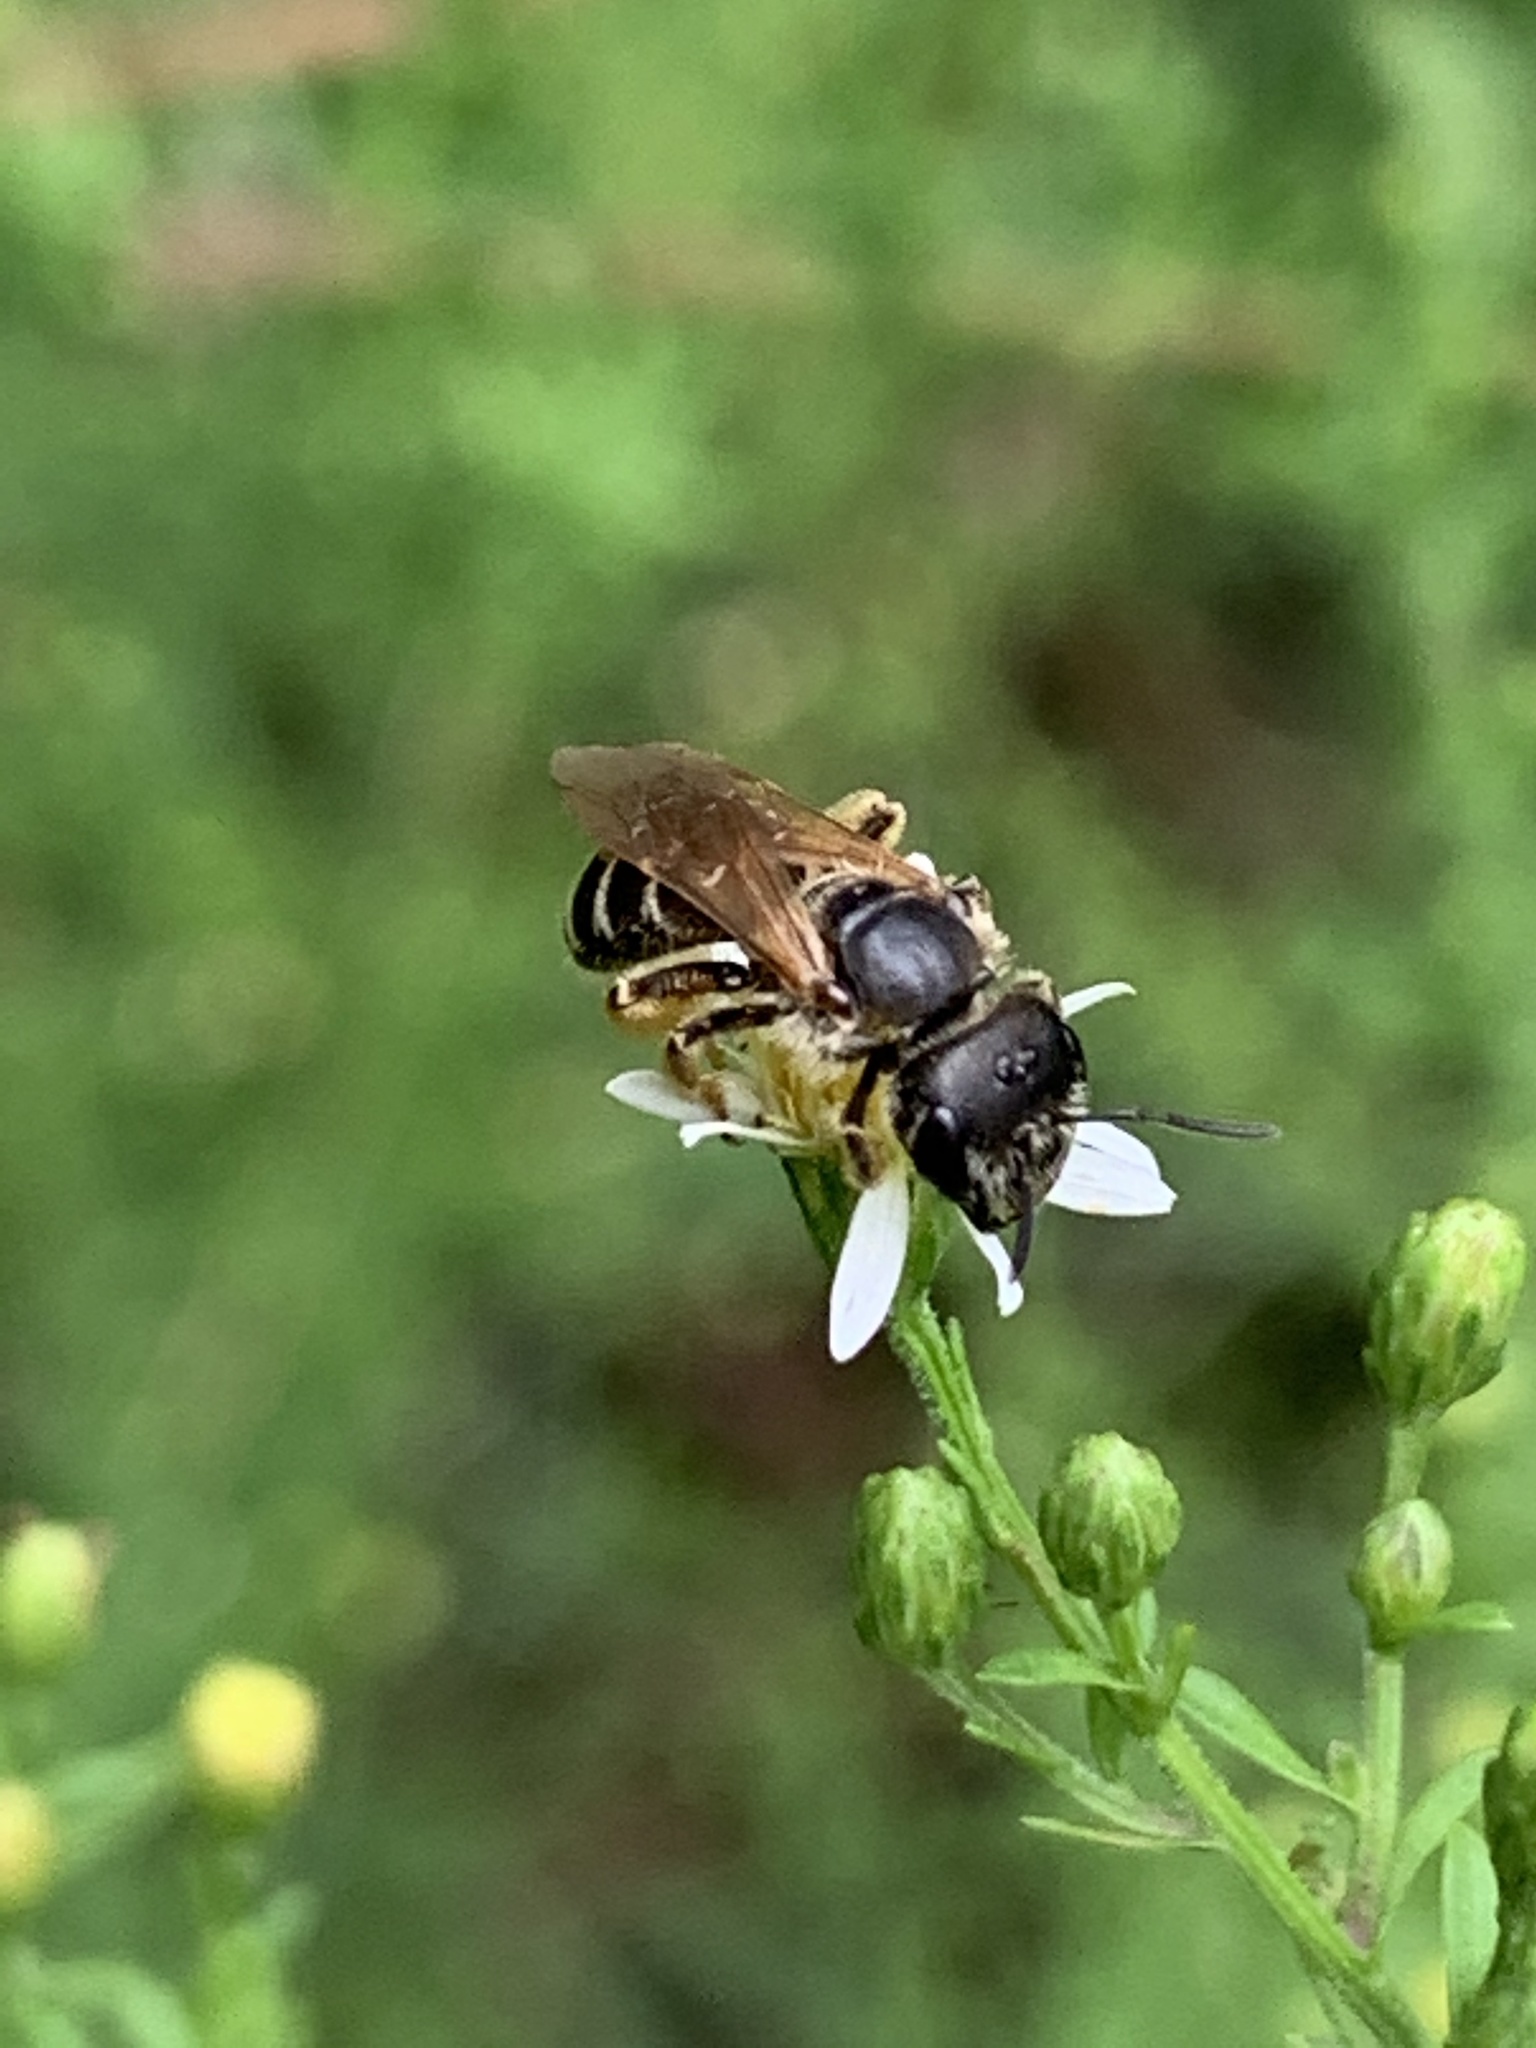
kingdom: Animalia
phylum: Arthropoda
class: Insecta
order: Hymenoptera
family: Halictidae
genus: Halictus
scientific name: Halictus ligatus
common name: Ligated furrow bee
